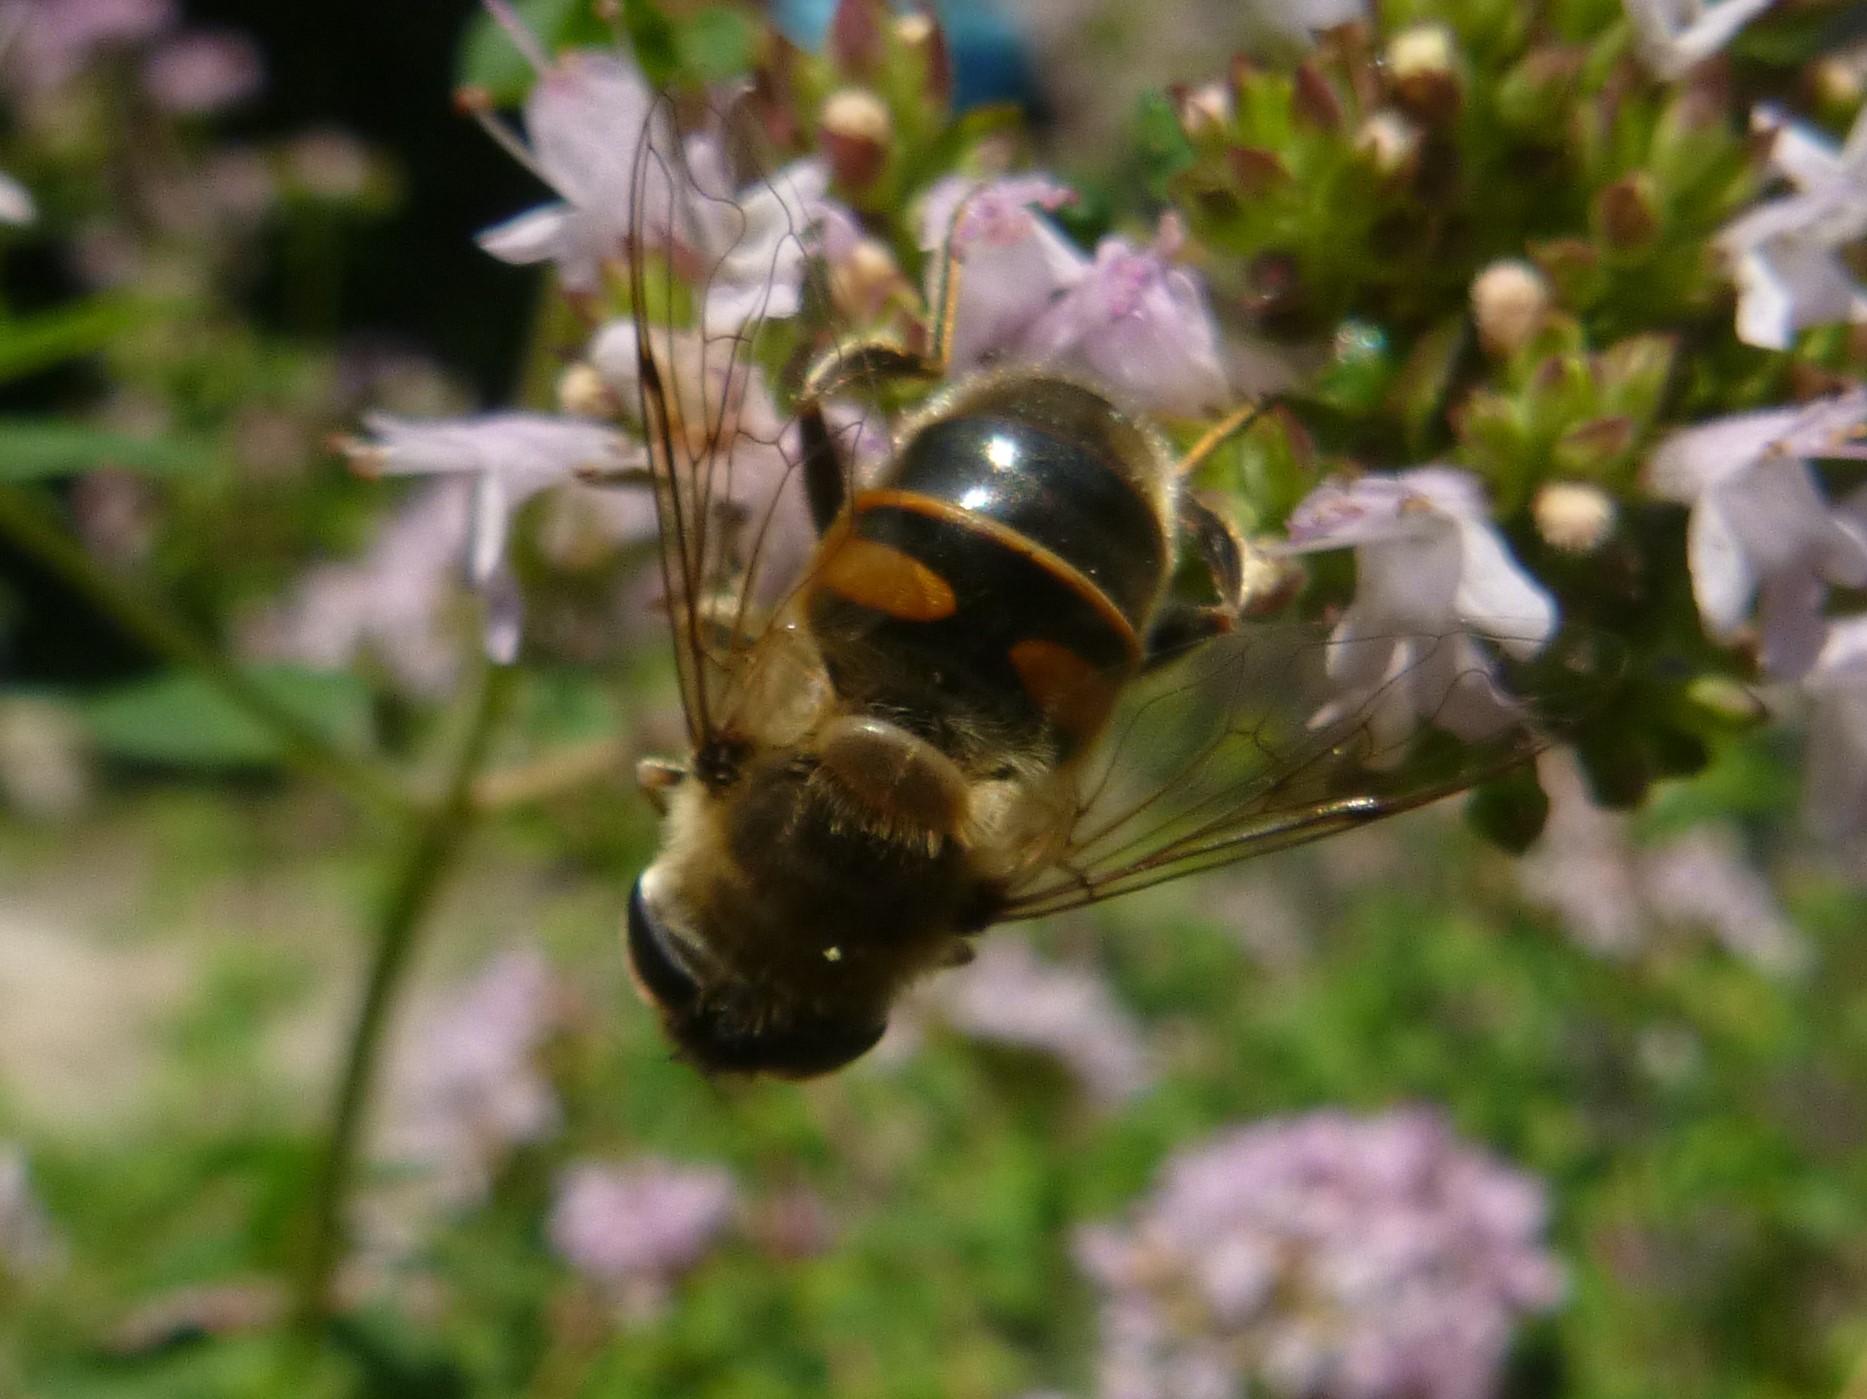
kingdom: Animalia
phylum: Arthropoda
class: Insecta
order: Diptera
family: Syrphidae
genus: Eristalis
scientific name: Eristalis tenax
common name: Drone fly
